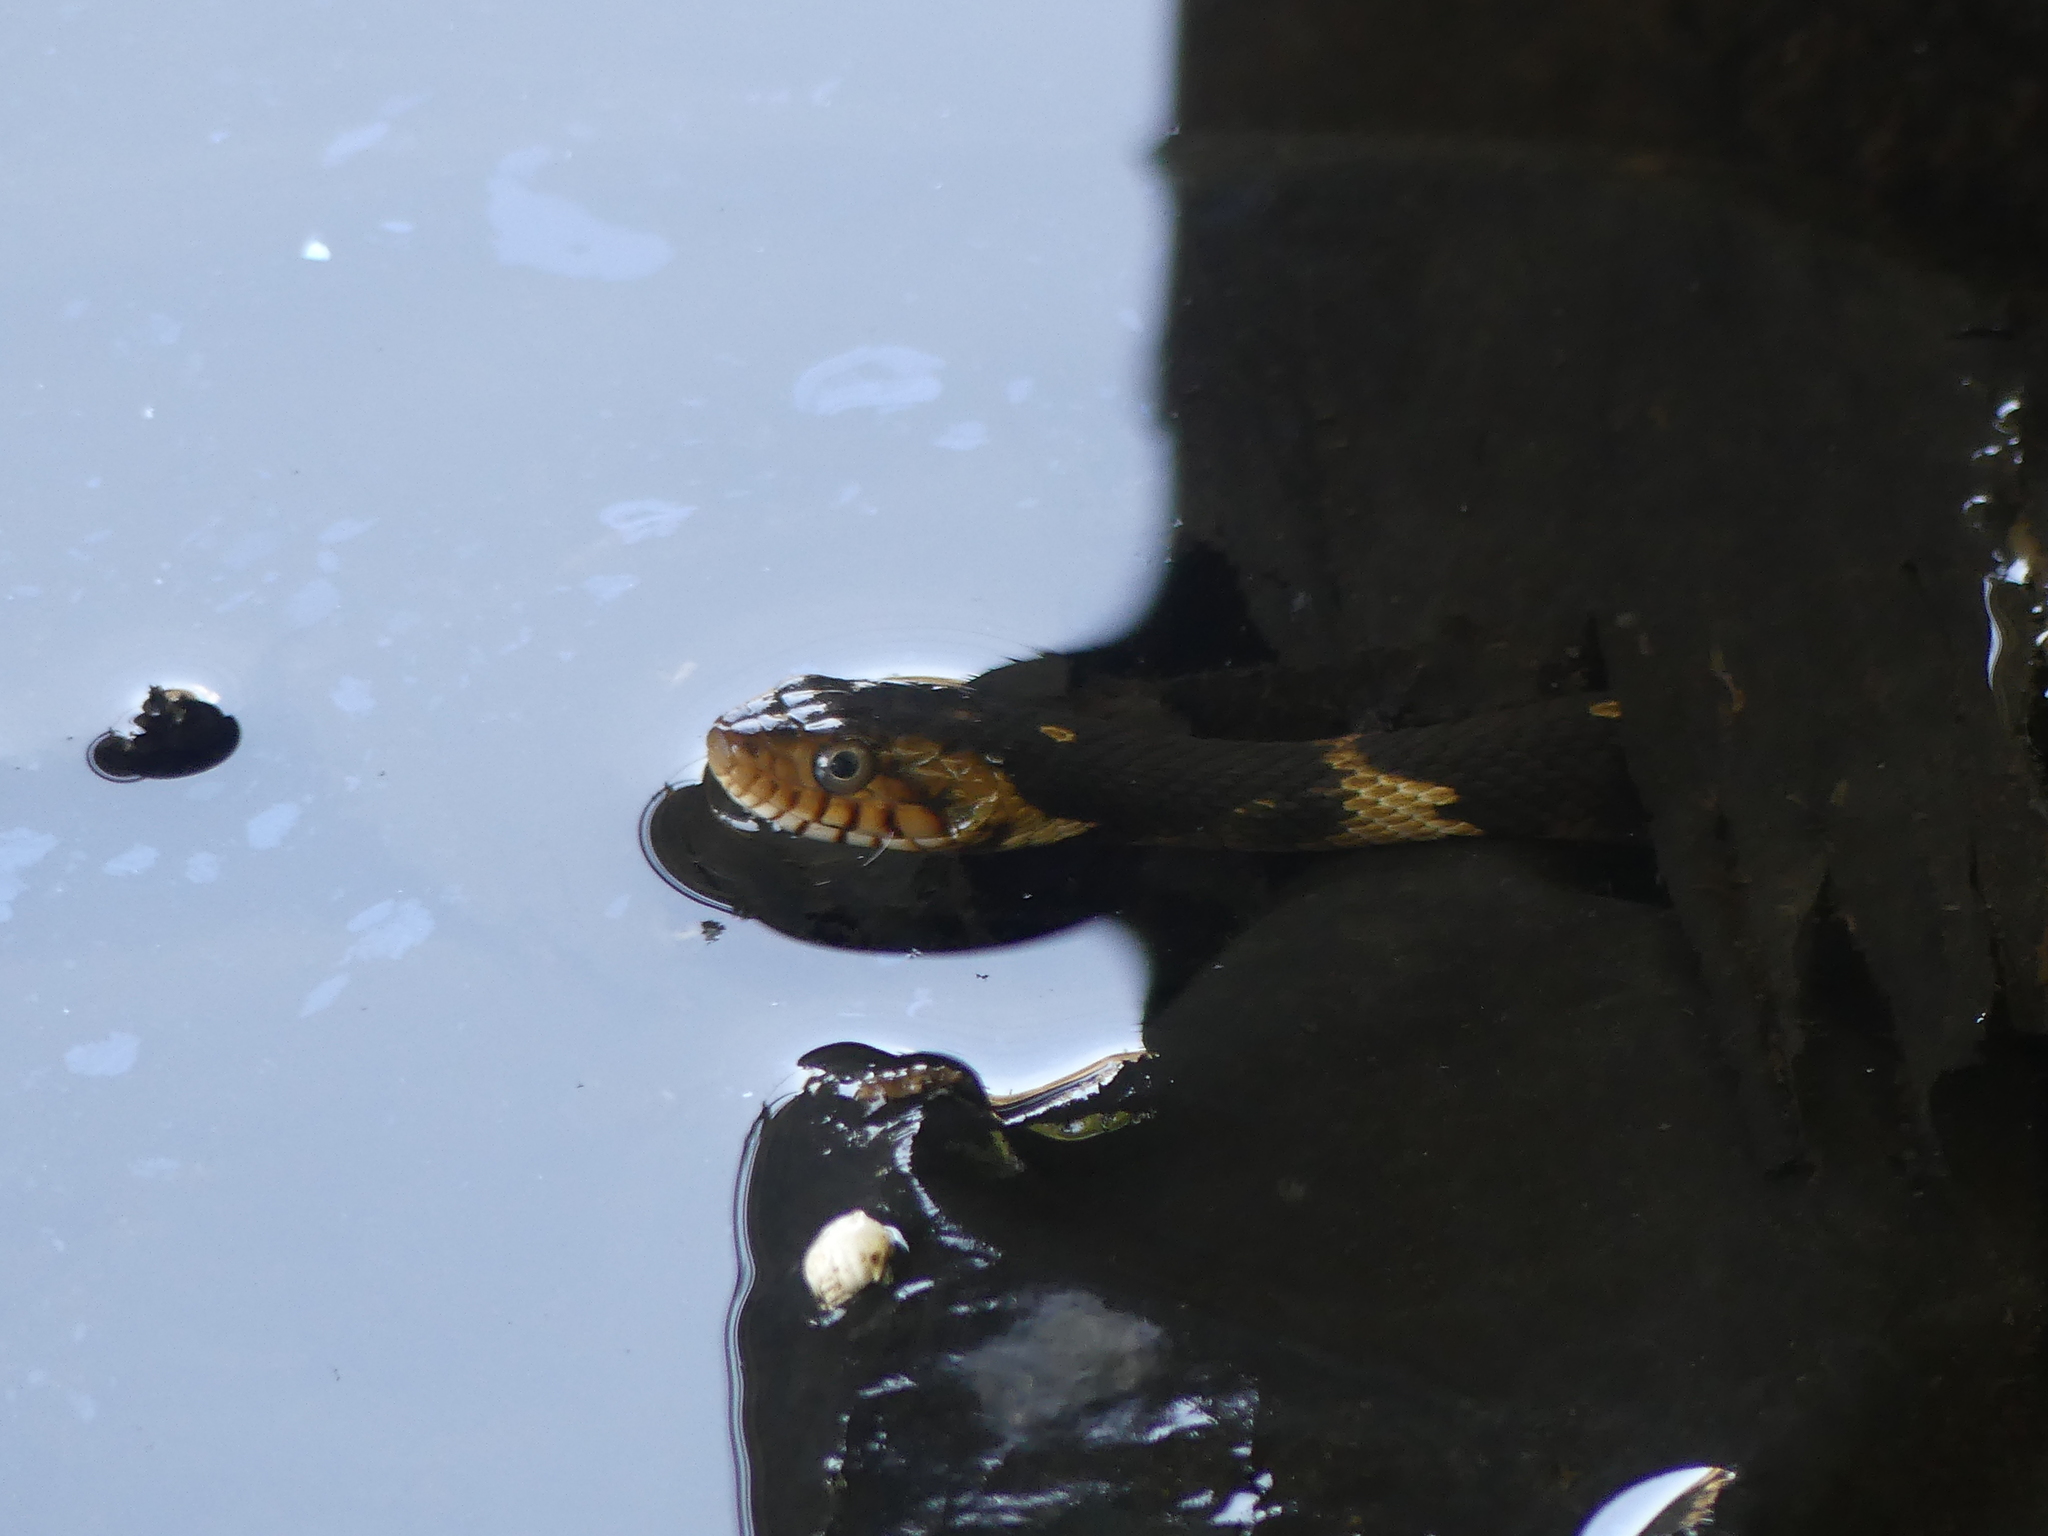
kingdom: Animalia
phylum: Chordata
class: Squamata
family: Colubridae
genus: Nerodia
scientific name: Nerodia fasciata
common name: Southern water snake
